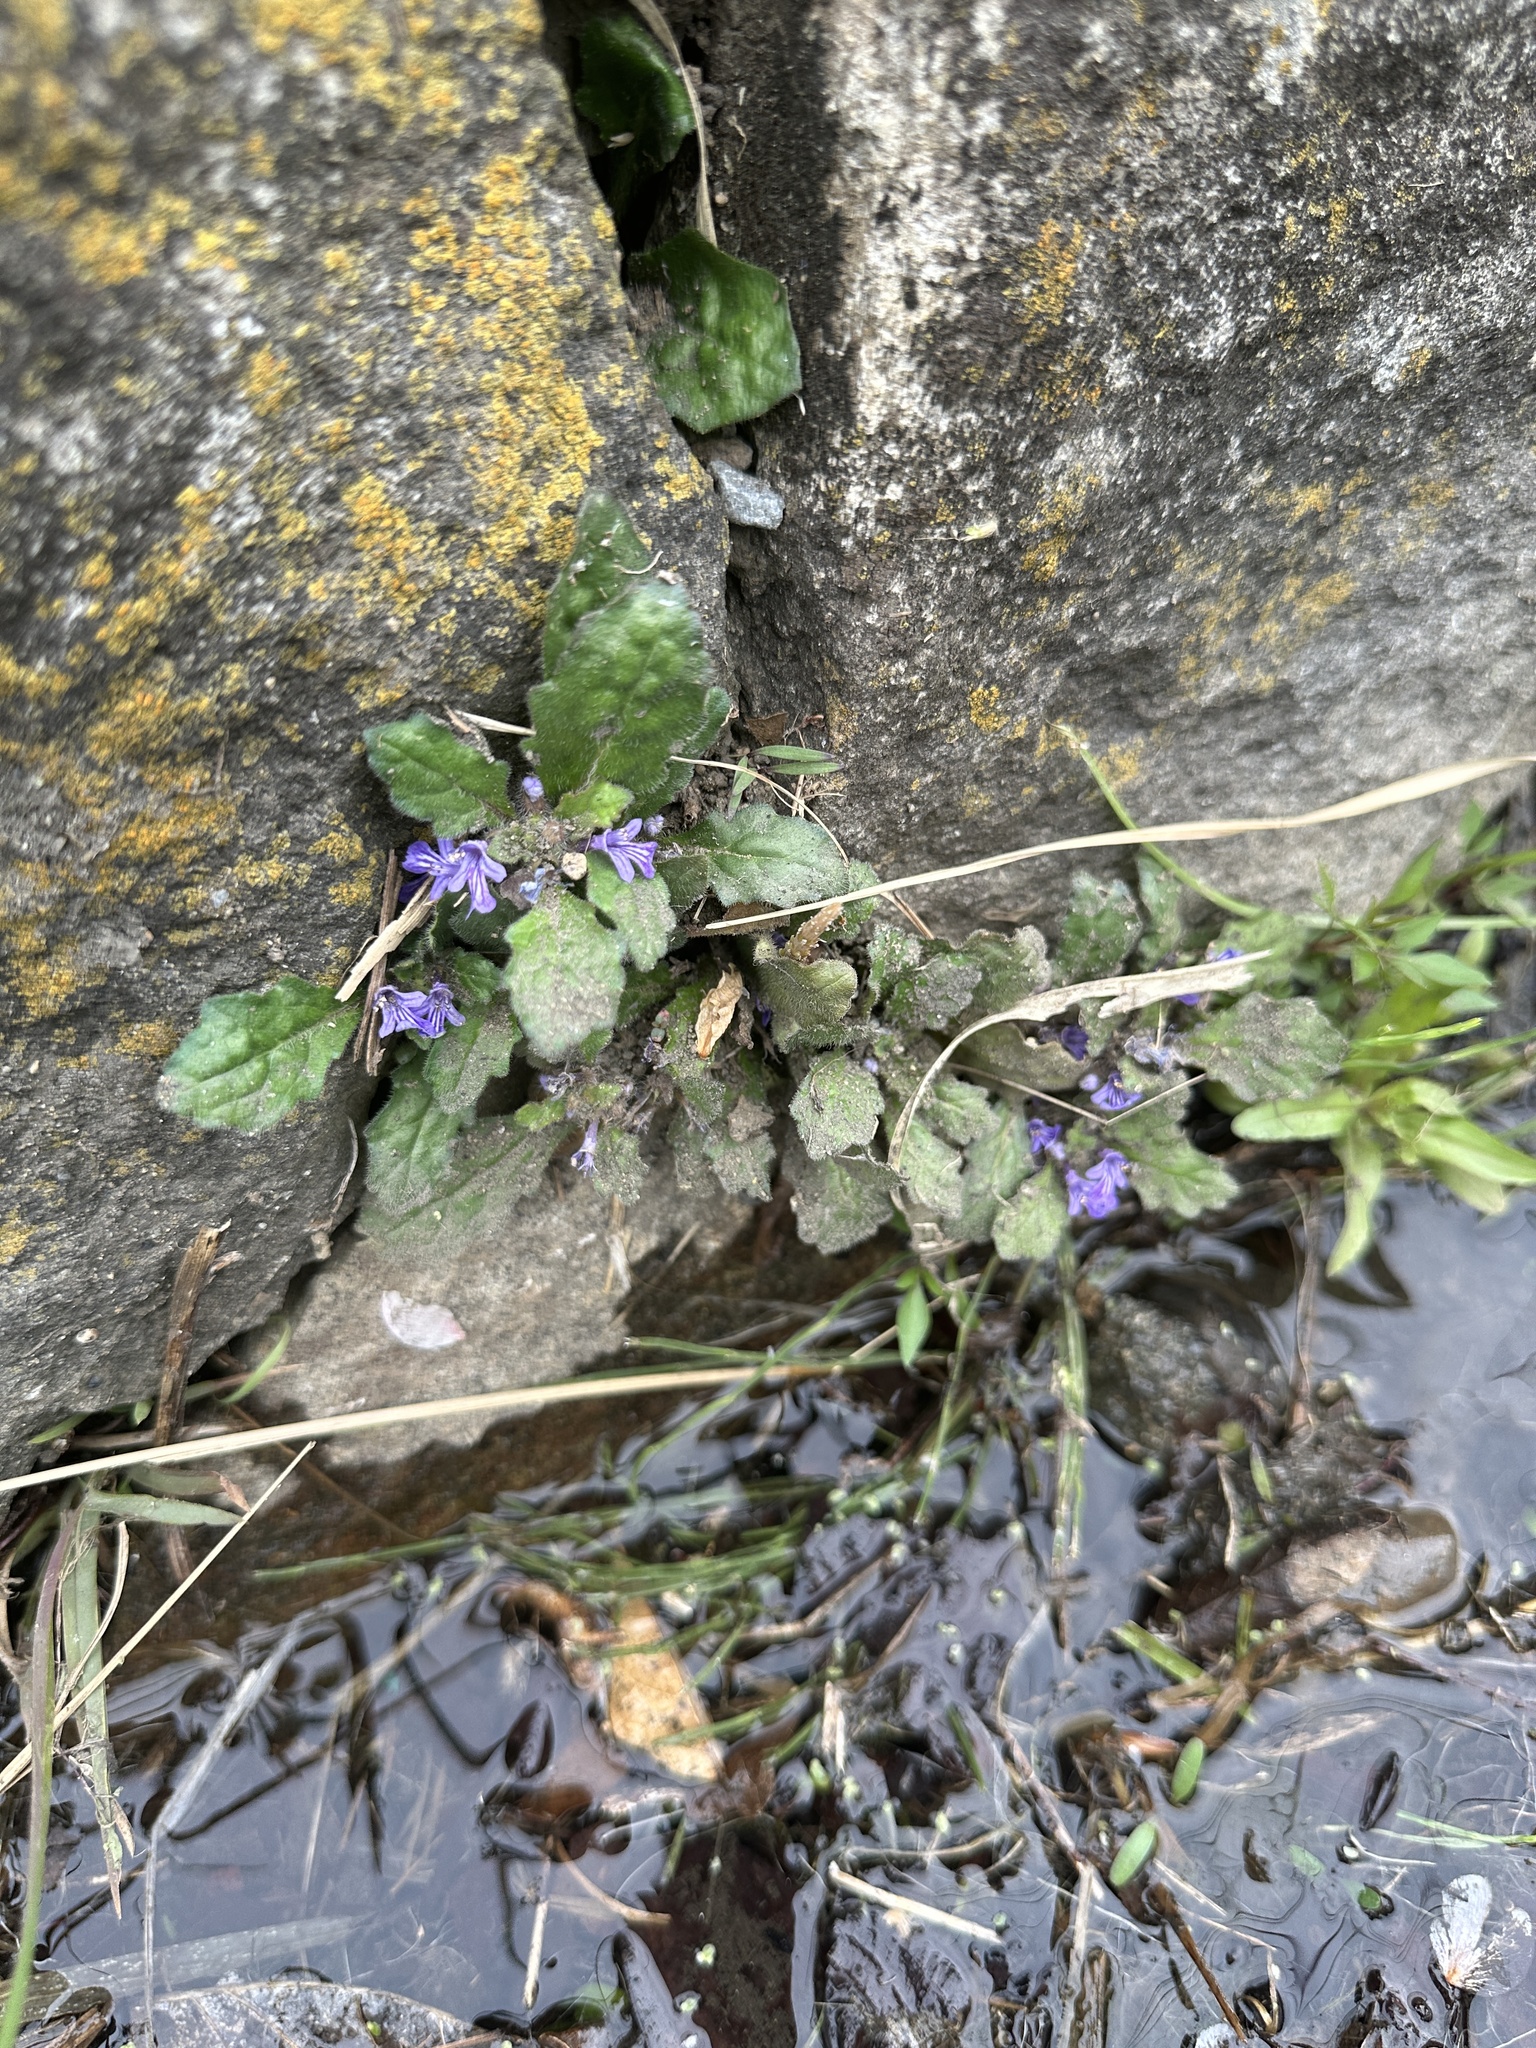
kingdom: Plantae
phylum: Tracheophyta
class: Magnoliopsida
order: Lamiales
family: Lamiaceae
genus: Ajuga
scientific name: Ajuga decumbens
